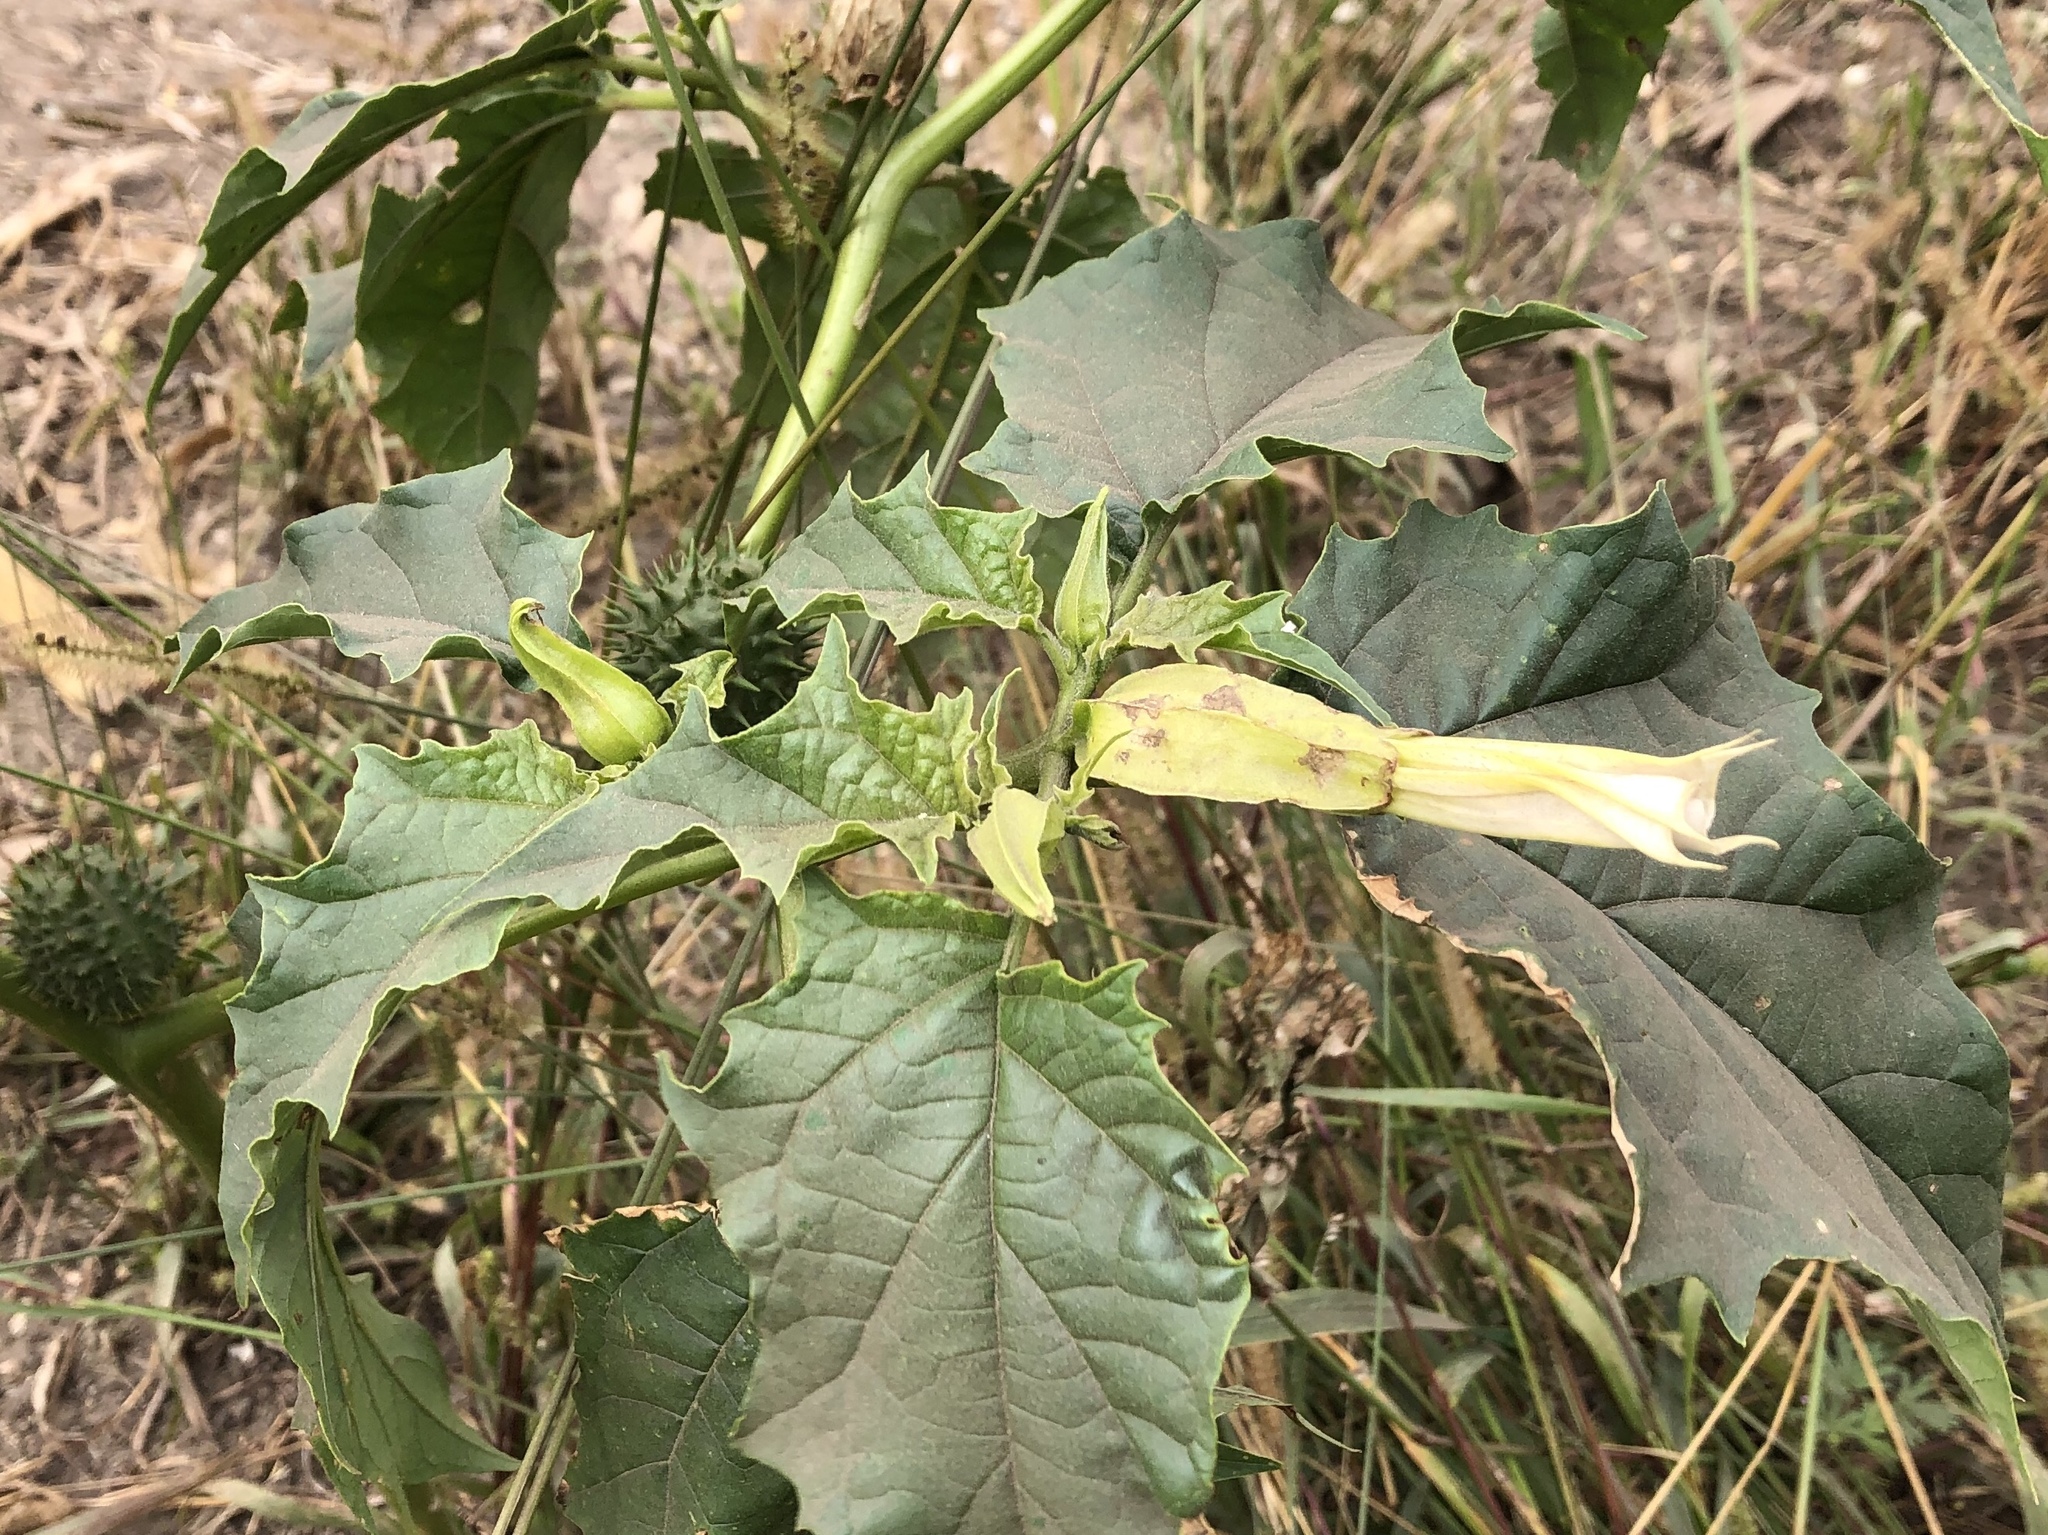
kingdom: Plantae
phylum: Tracheophyta
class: Magnoliopsida
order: Solanales
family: Solanaceae
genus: Datura
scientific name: Datura stramonium
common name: Thorn-apple
